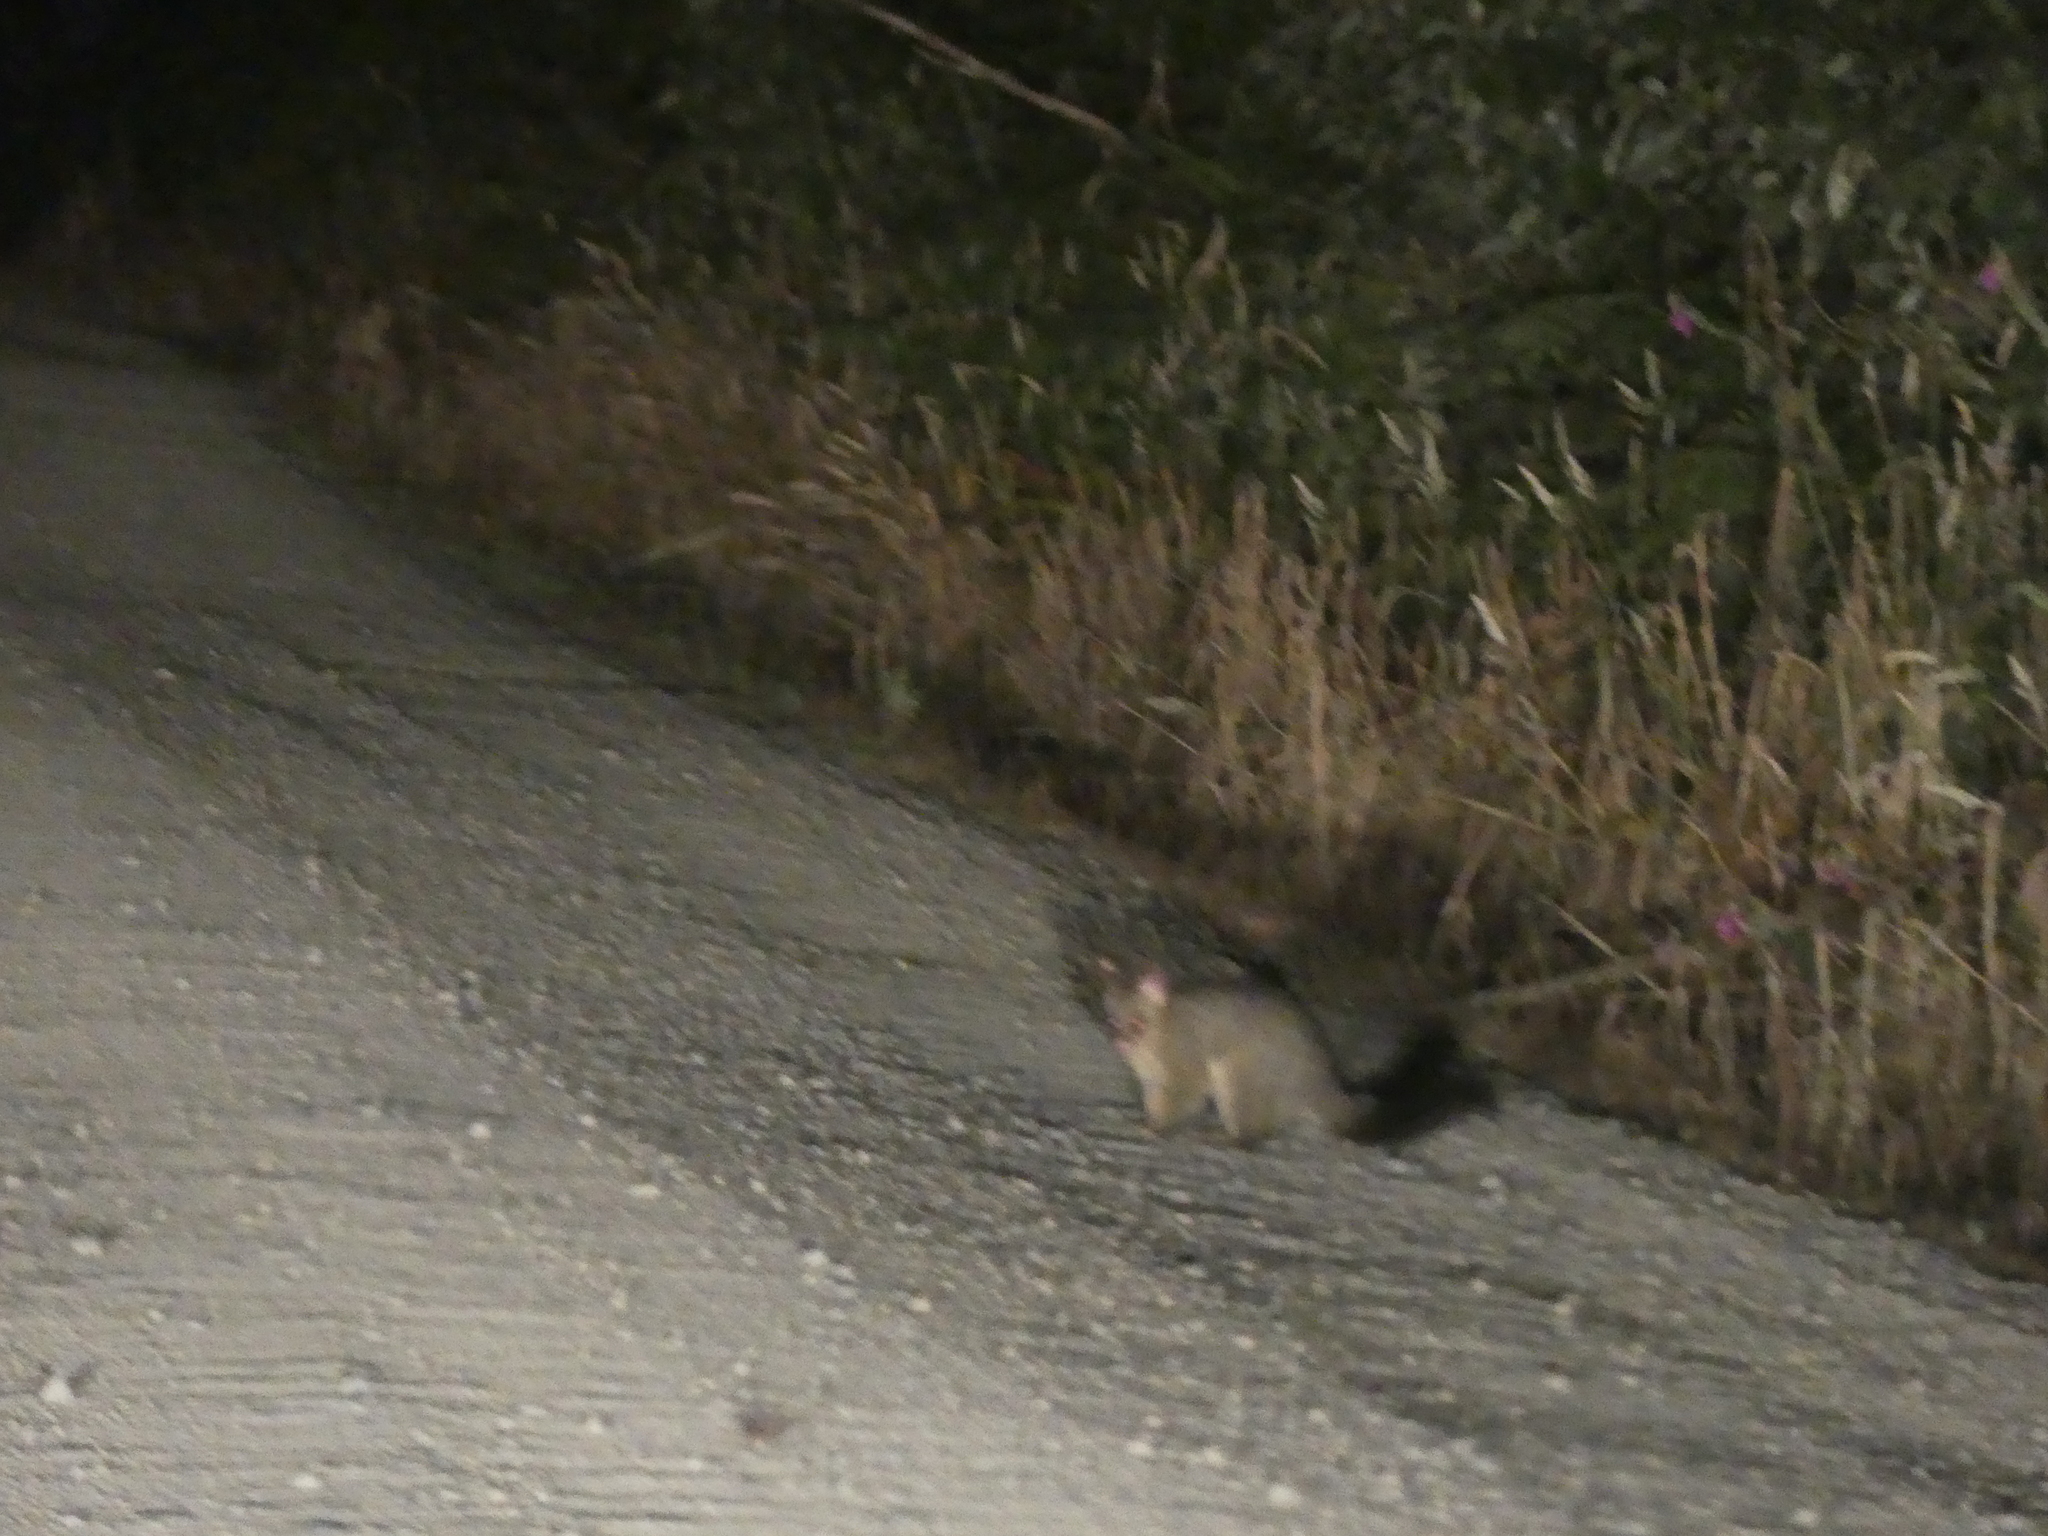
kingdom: Animalia
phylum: Chordata
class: Mammalia
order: Diprotodontia
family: Phalangeridae
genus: Trichosurus
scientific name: Trichosurus vulpecula
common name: Common brushtail
